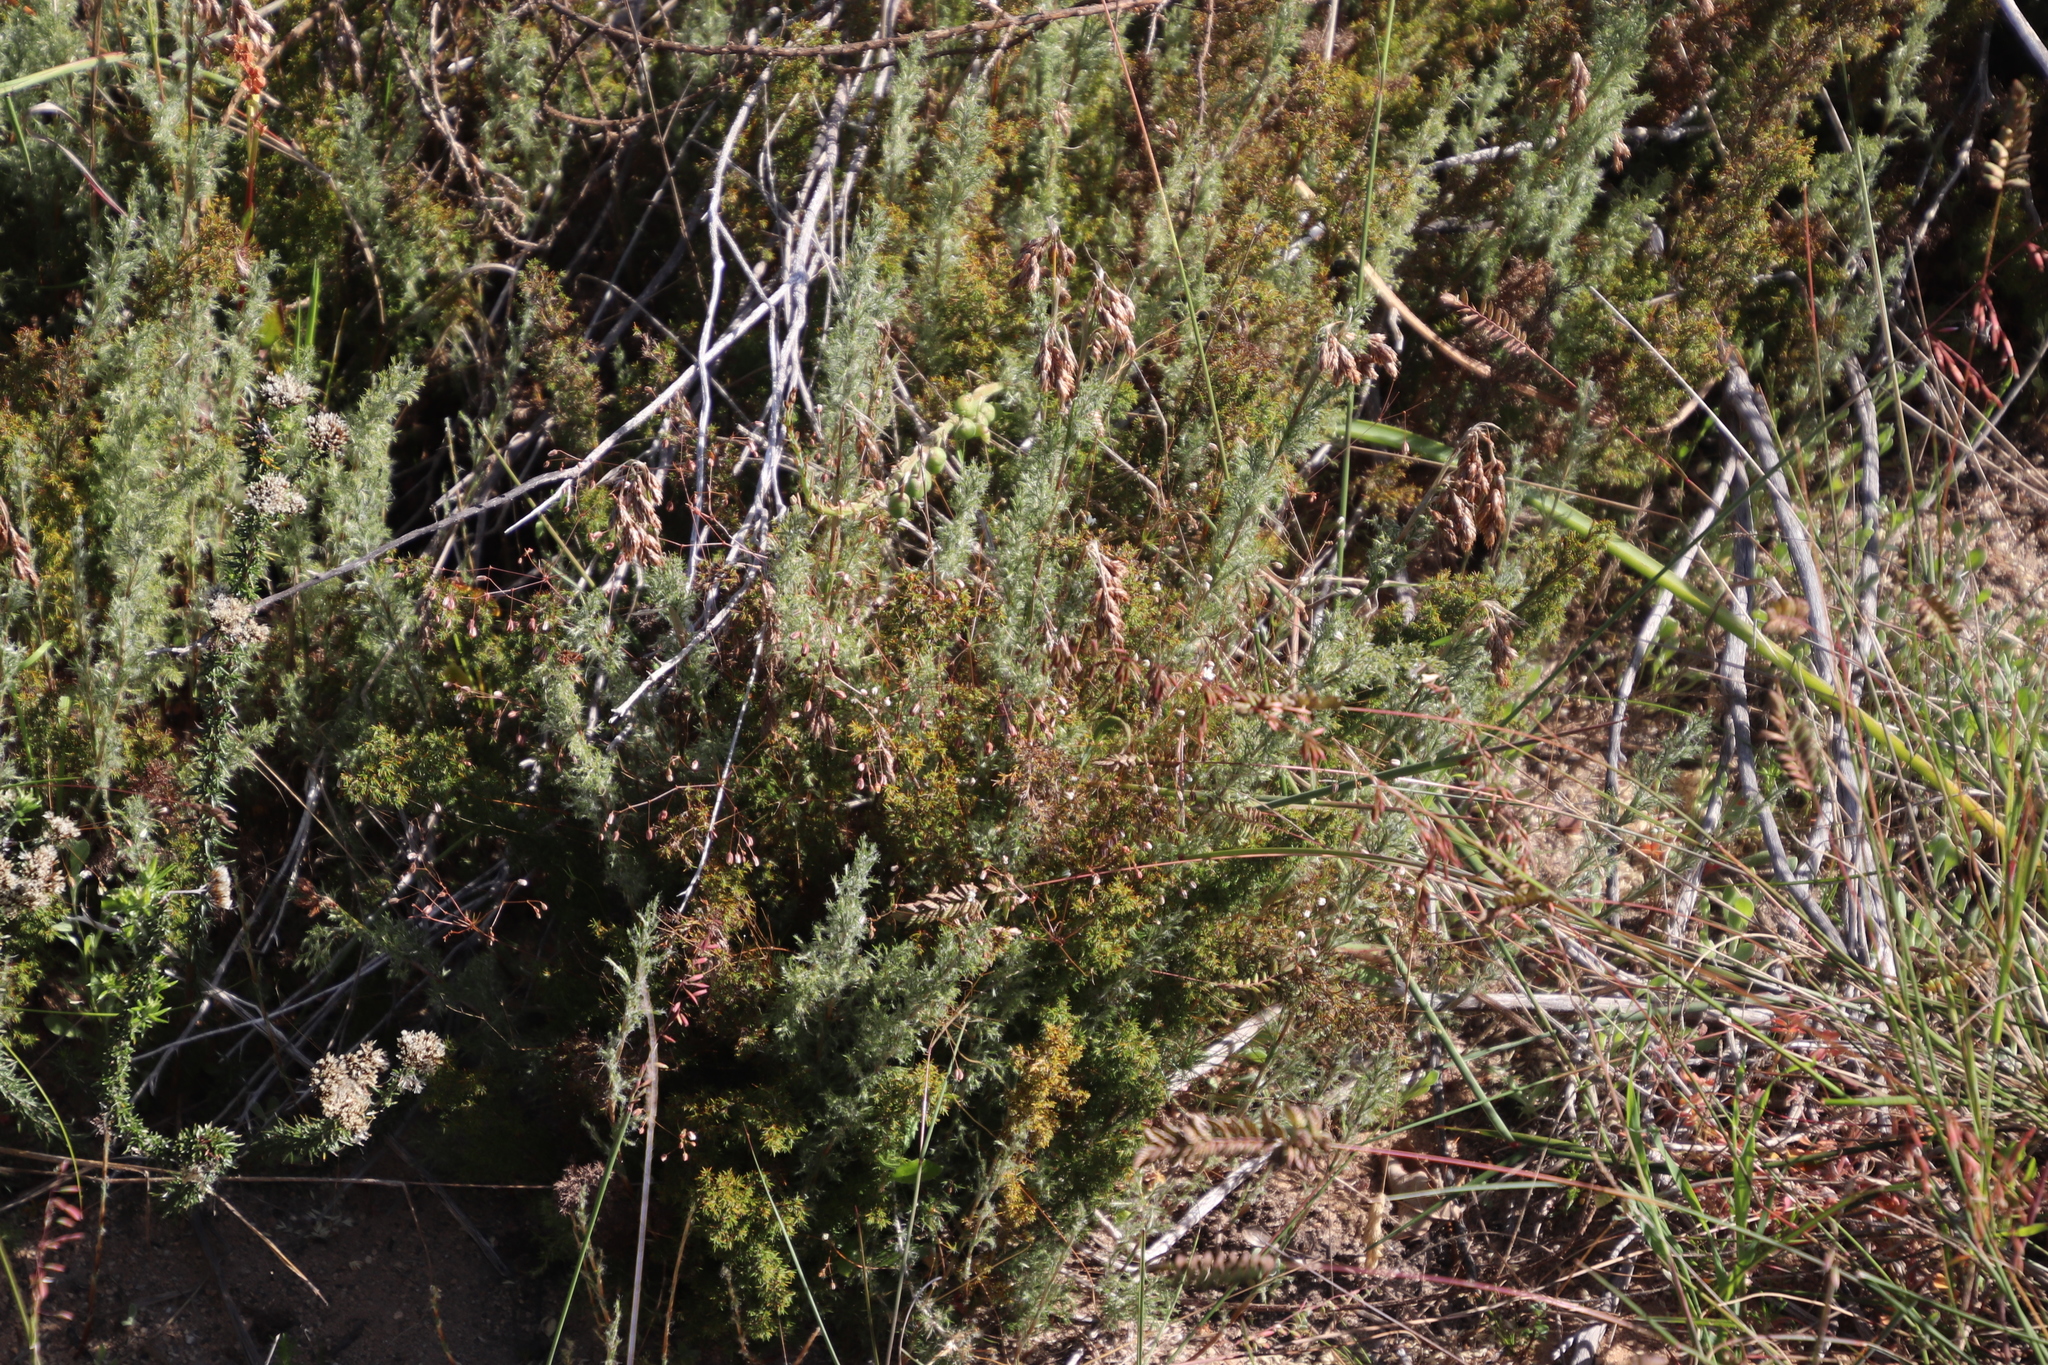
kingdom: Plantae
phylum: Tracheophyta
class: Liliopsida
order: Poales
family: Restionaceae
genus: Thamnochortus
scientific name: Thamnochortus fruticosus
